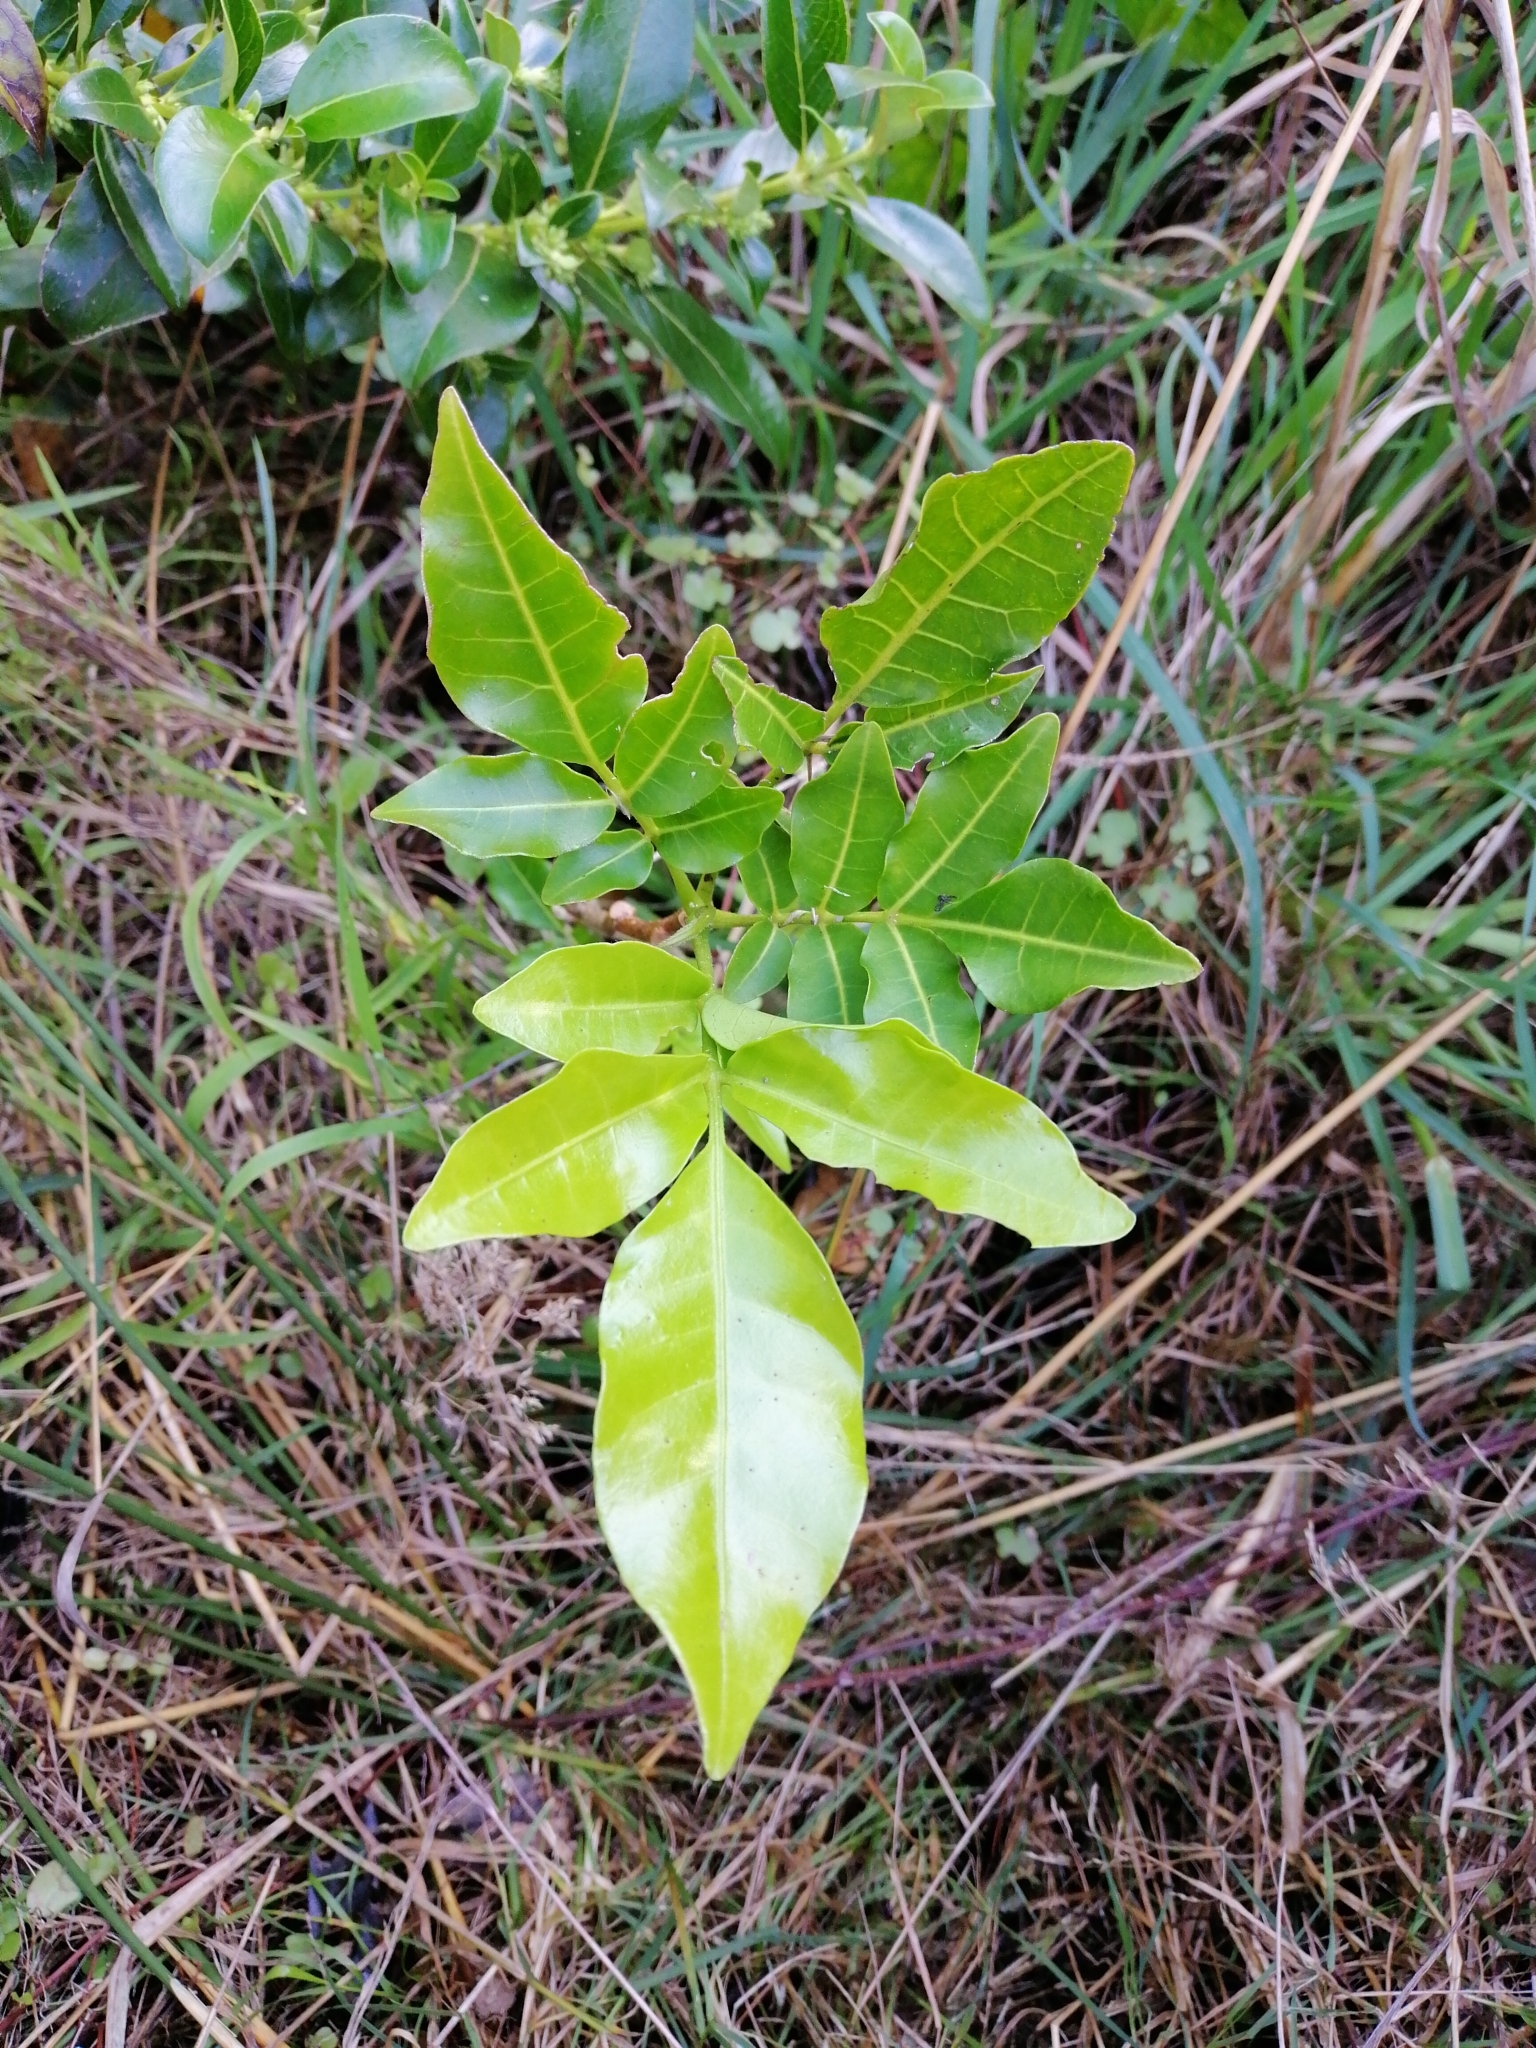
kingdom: Plantae
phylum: Tracheophyta
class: Magnoliopsida
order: Sapindales
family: Meliaceae
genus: Didymocheton
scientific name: Didymocheton spectabilis
